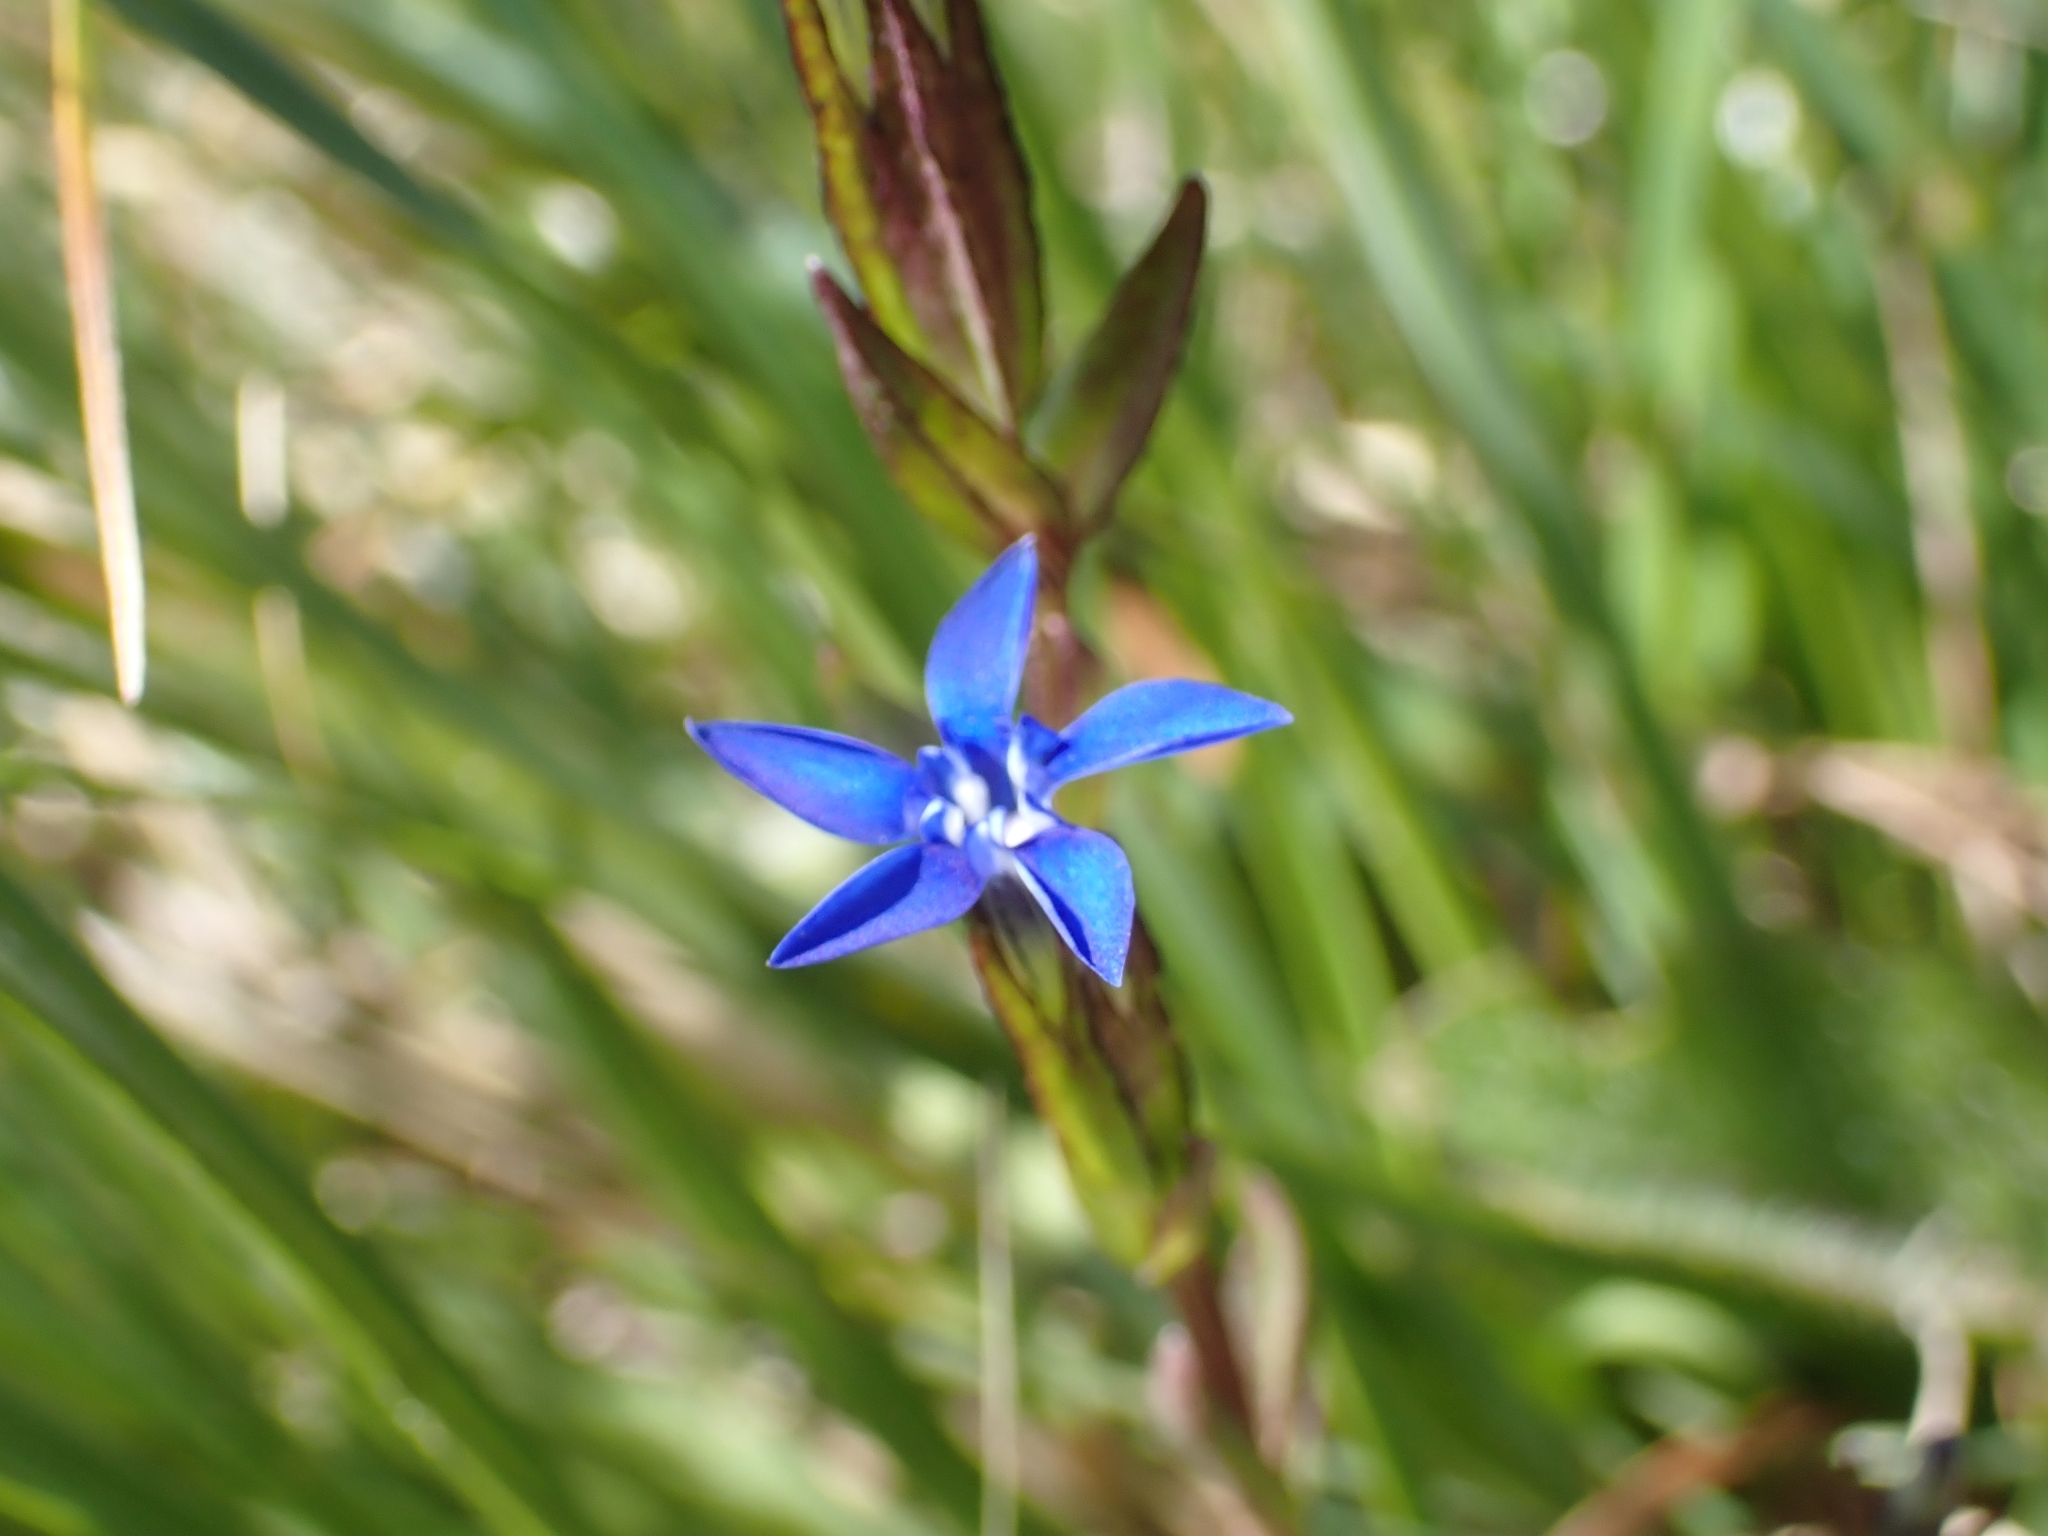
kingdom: Plantae
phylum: Tracheophyta
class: Magnoliopsida
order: Gentianales
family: Gentianaceae
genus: Gentiana
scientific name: Gentiana nivalis
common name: Alpine gentian
